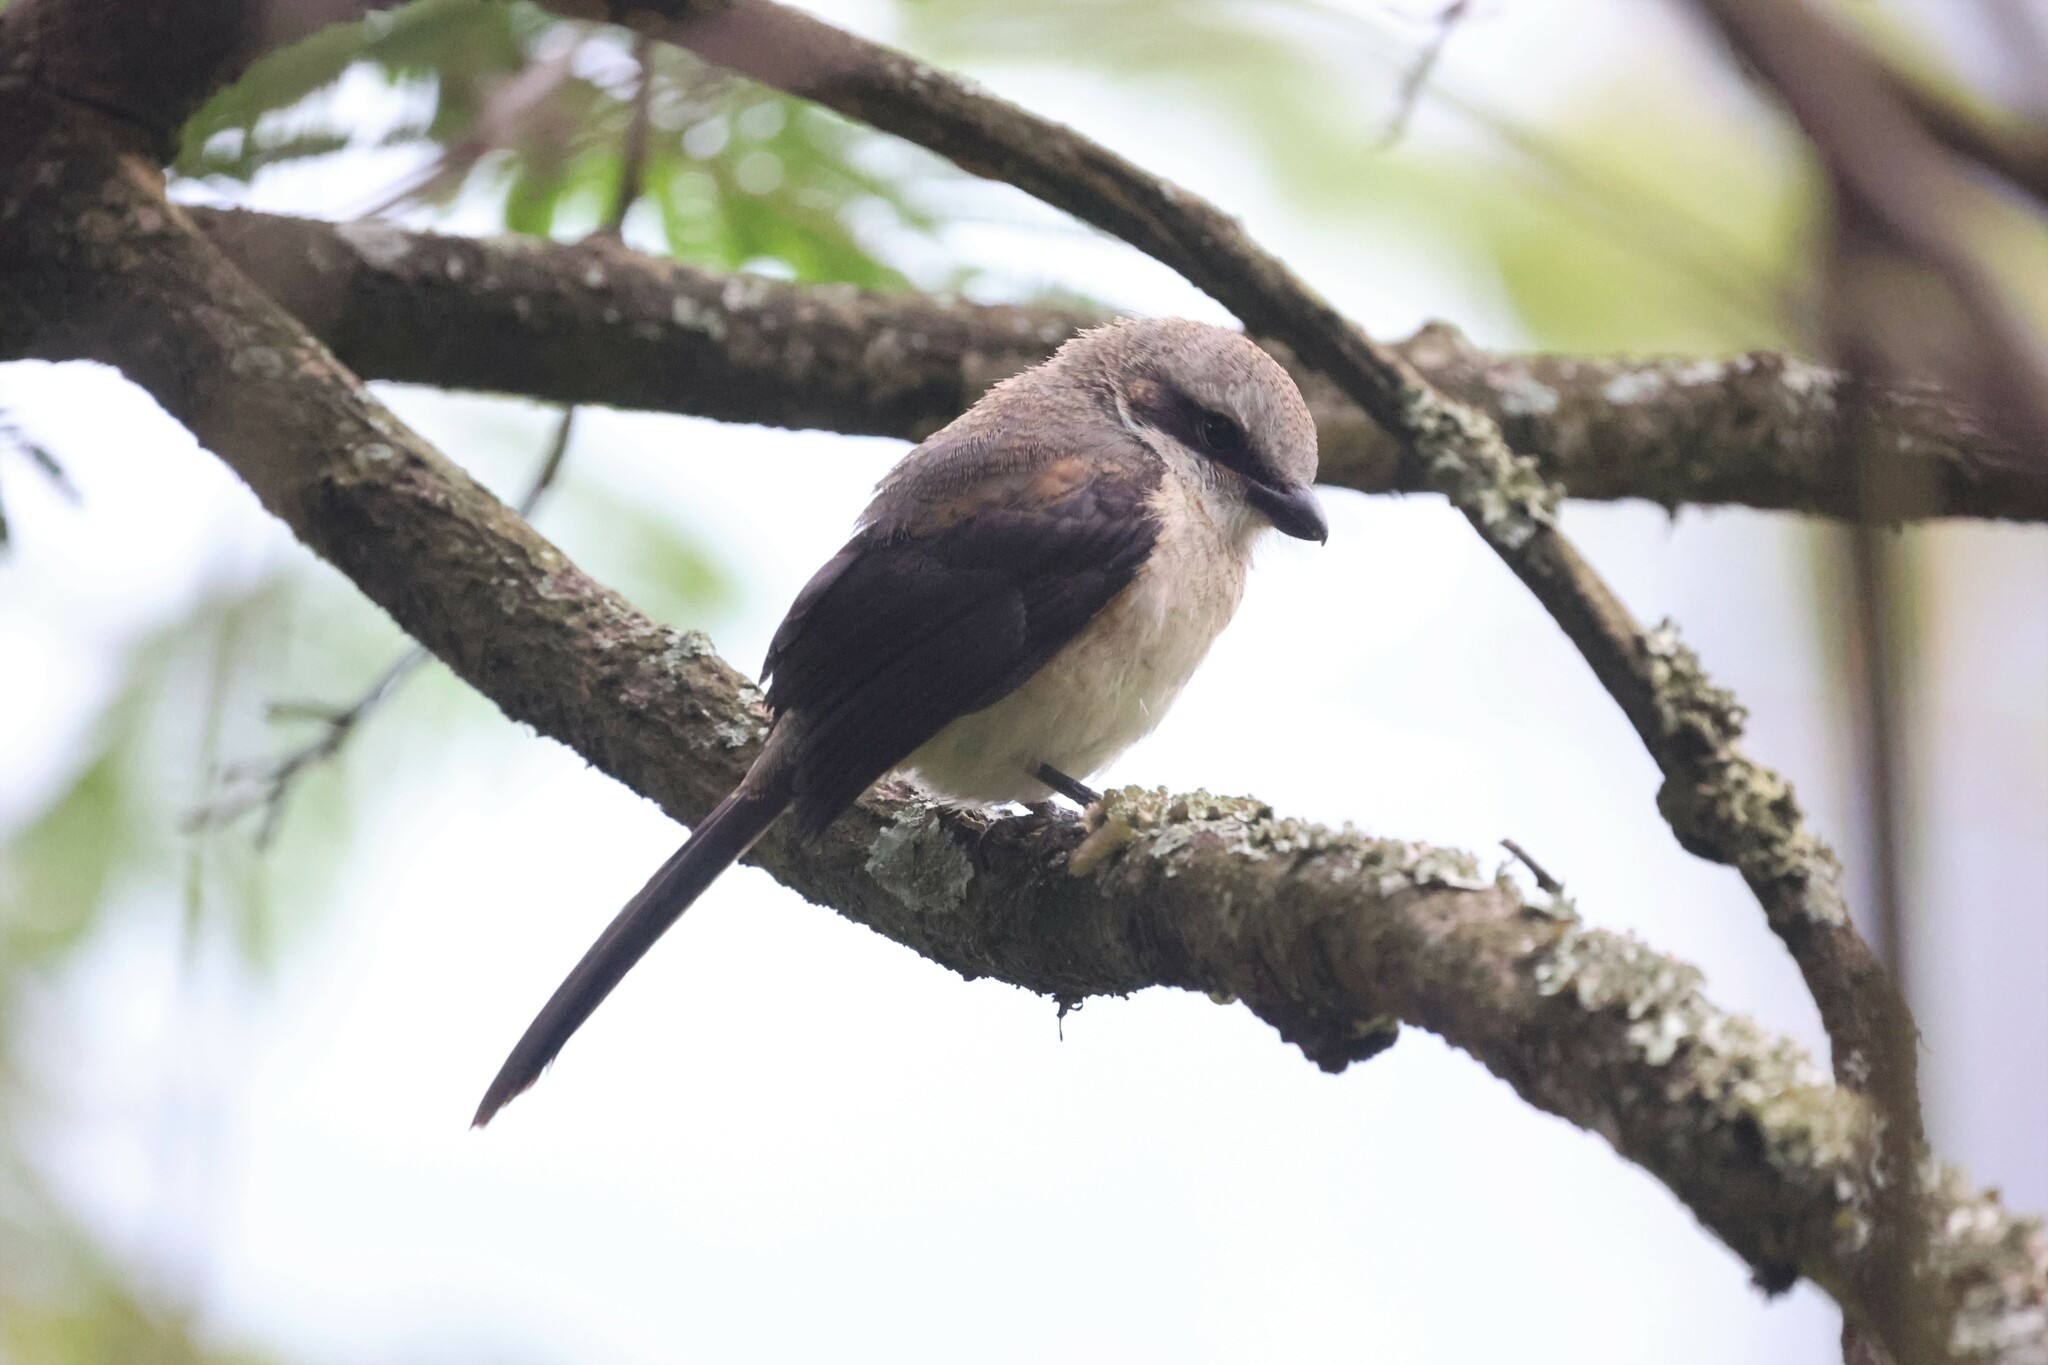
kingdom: Animalia
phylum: Chordata
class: Aves
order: Passeriformes
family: Laniidae
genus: Lanius
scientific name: Lanius mackinnoni
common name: Mackinnon's shrike
